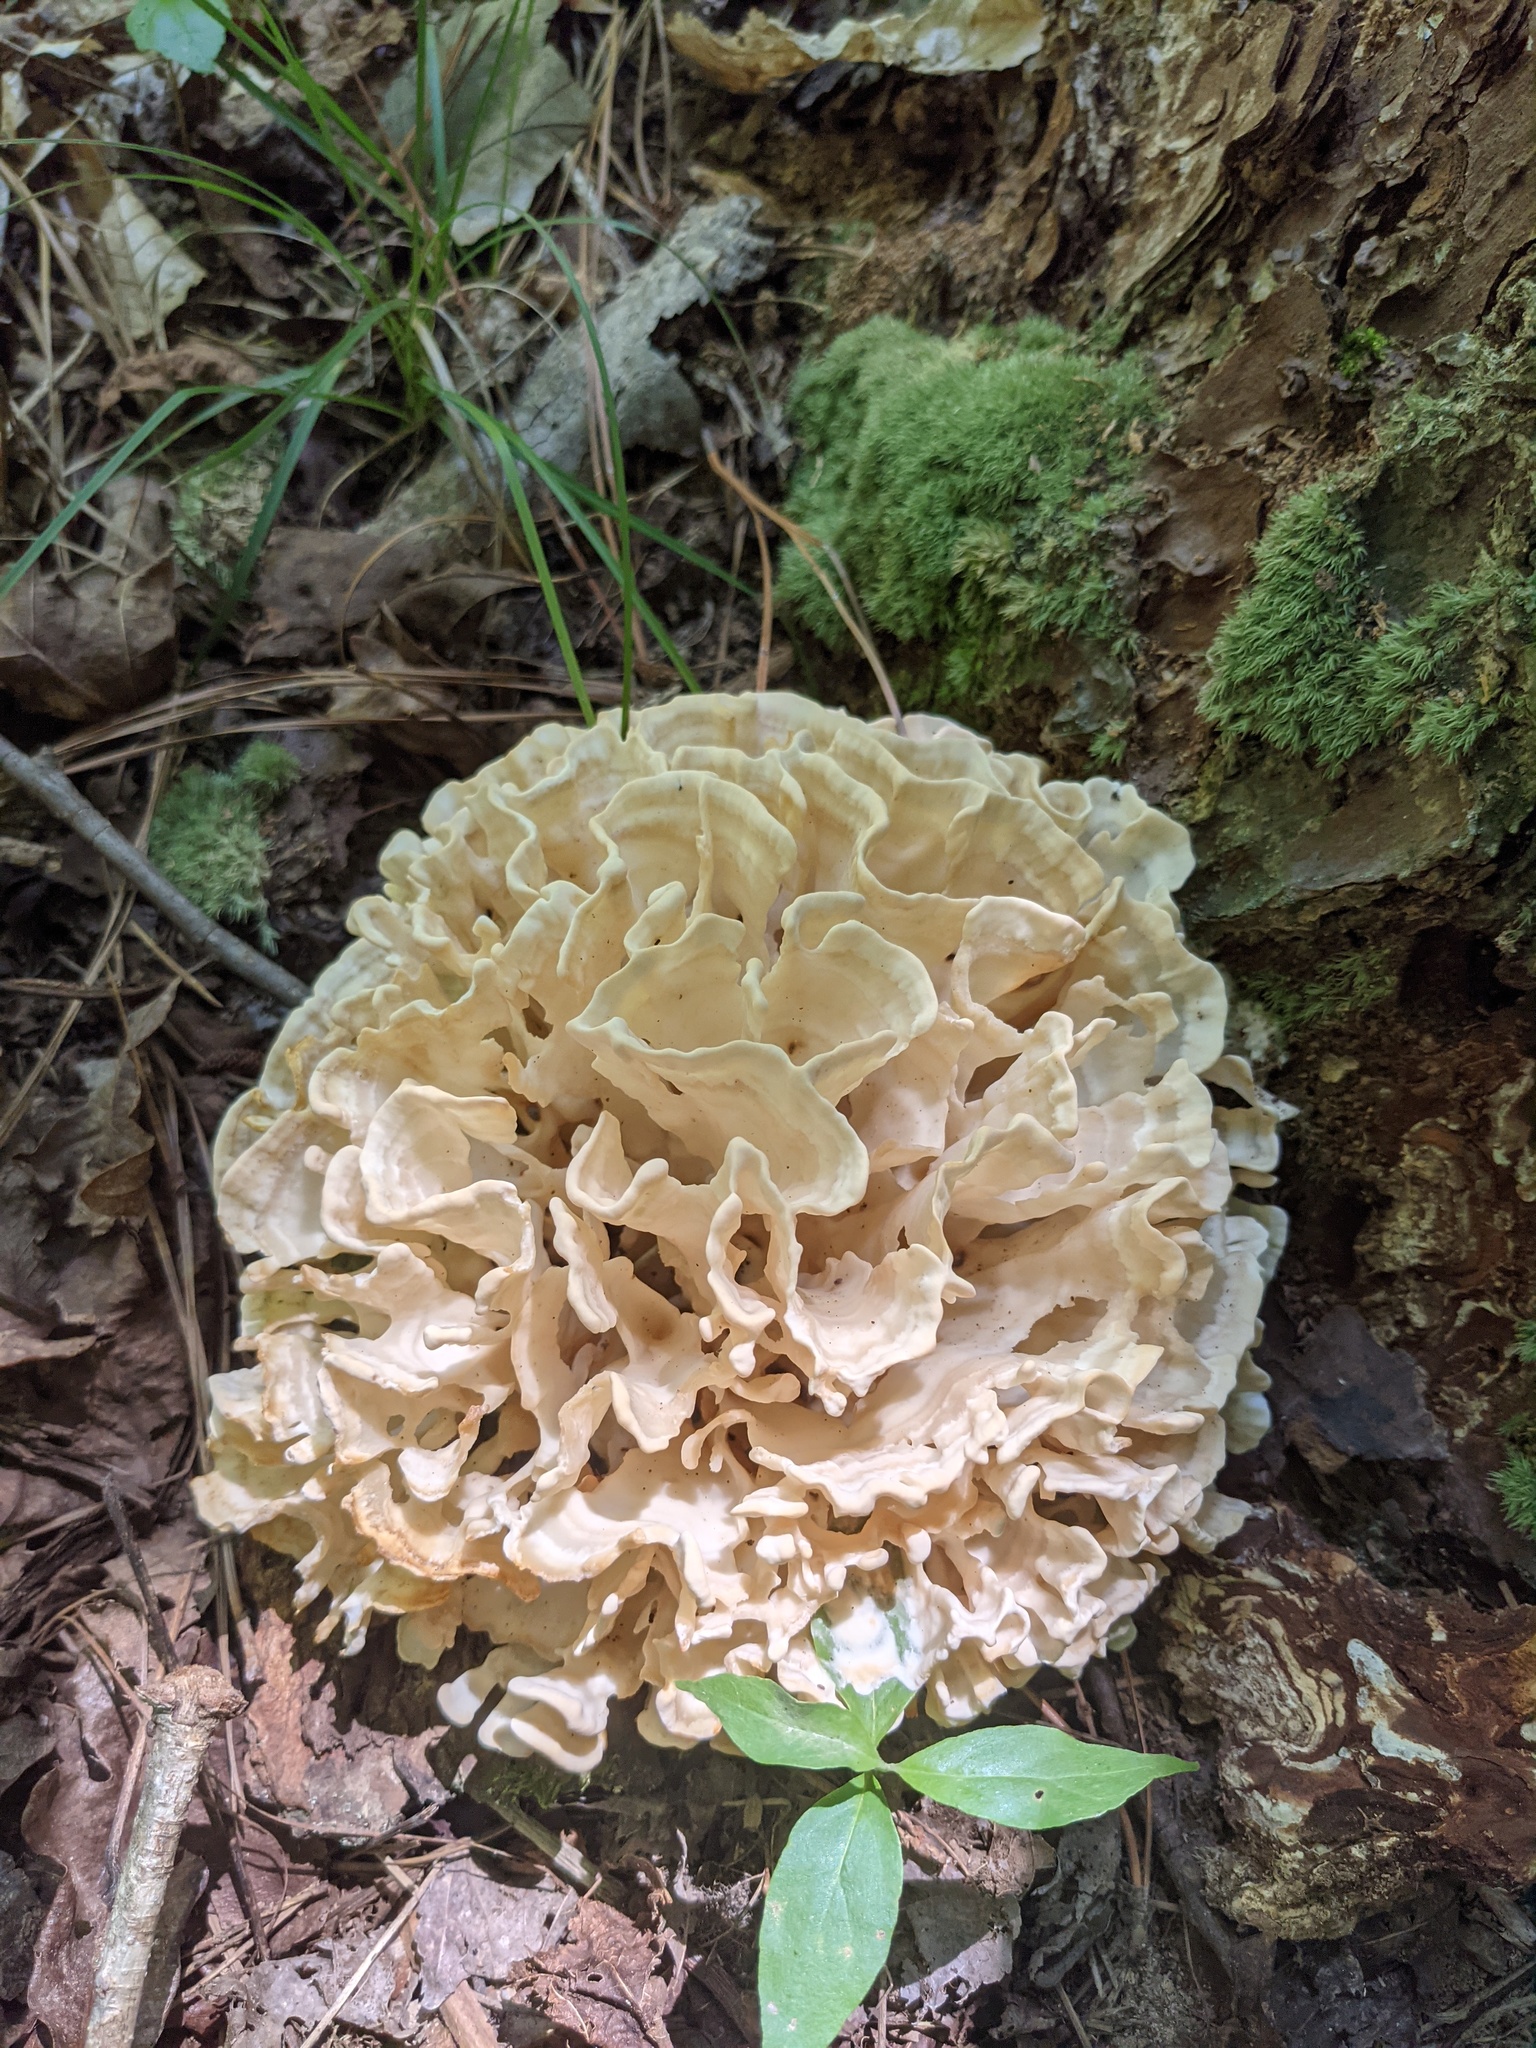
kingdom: Fungi
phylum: Basidiomycota
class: Agaricomycetes
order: Polyporales
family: Sparassidaceae
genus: Sparassis
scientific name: Sparassis spathulata
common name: Eastern cauliflower mushroom
